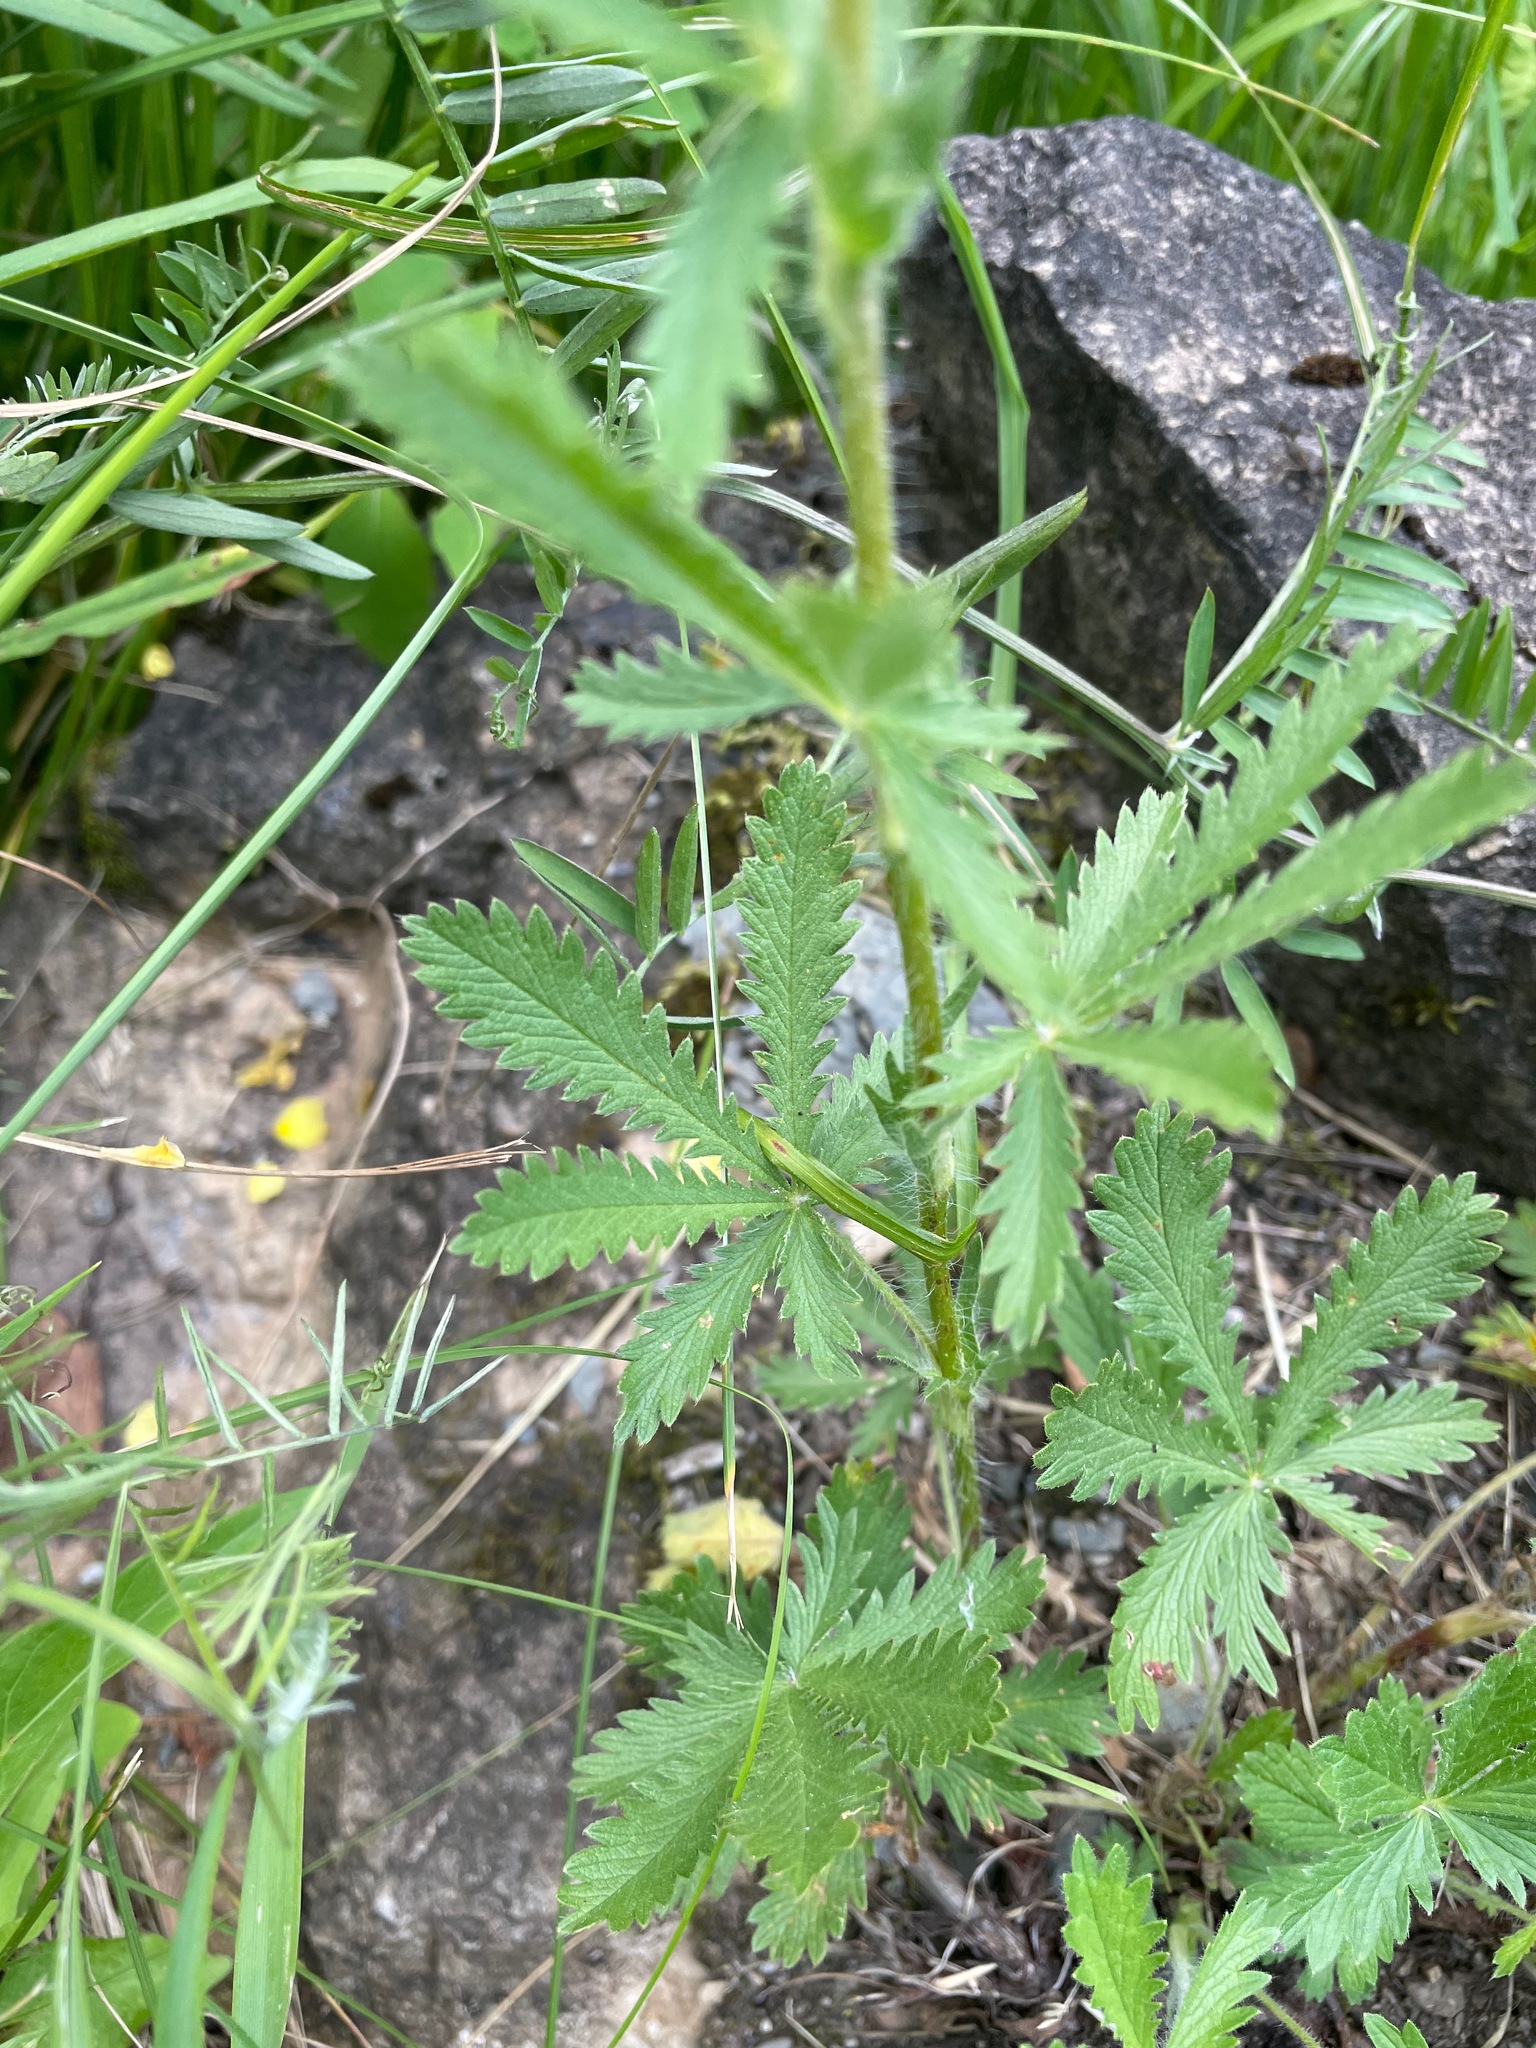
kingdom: Plantae
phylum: Tracheophyta
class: Magnoliopsida
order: Rosales
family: Rosaceae
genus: Potentilla
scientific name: Potentilla recta
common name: Sulphur cinquefoil
